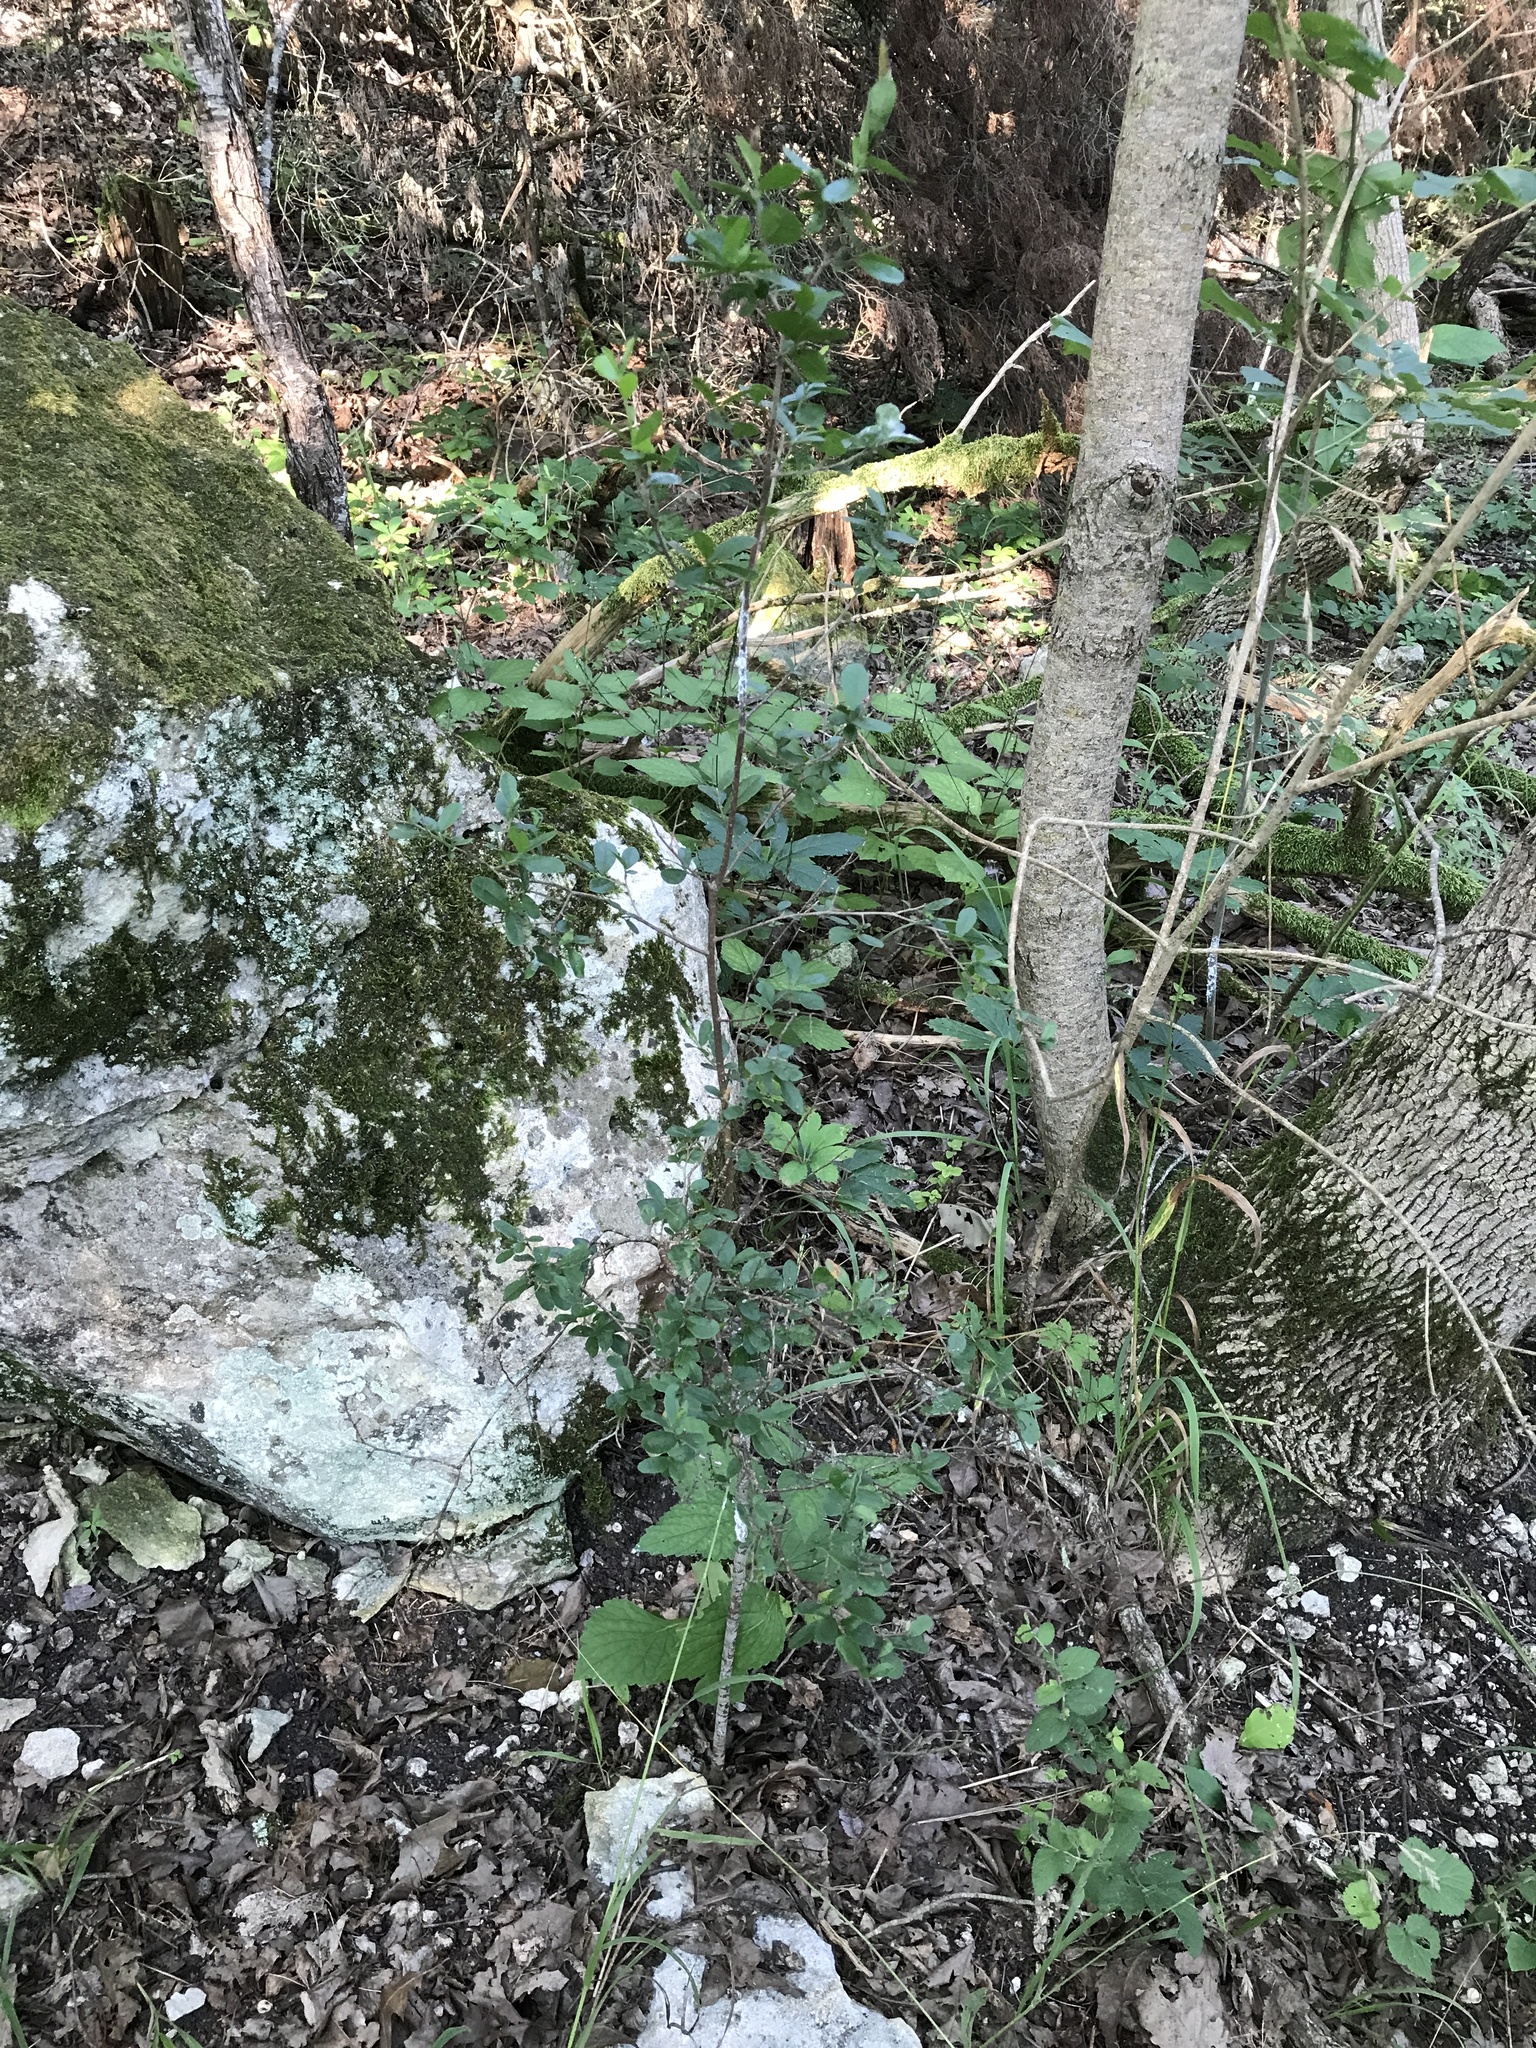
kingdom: Plantae
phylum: Tracheophyta
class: Magnoliopsida
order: Ericales
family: Ebenaceae
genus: Diospyros
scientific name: Diospyros texana
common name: Texas persimmon
